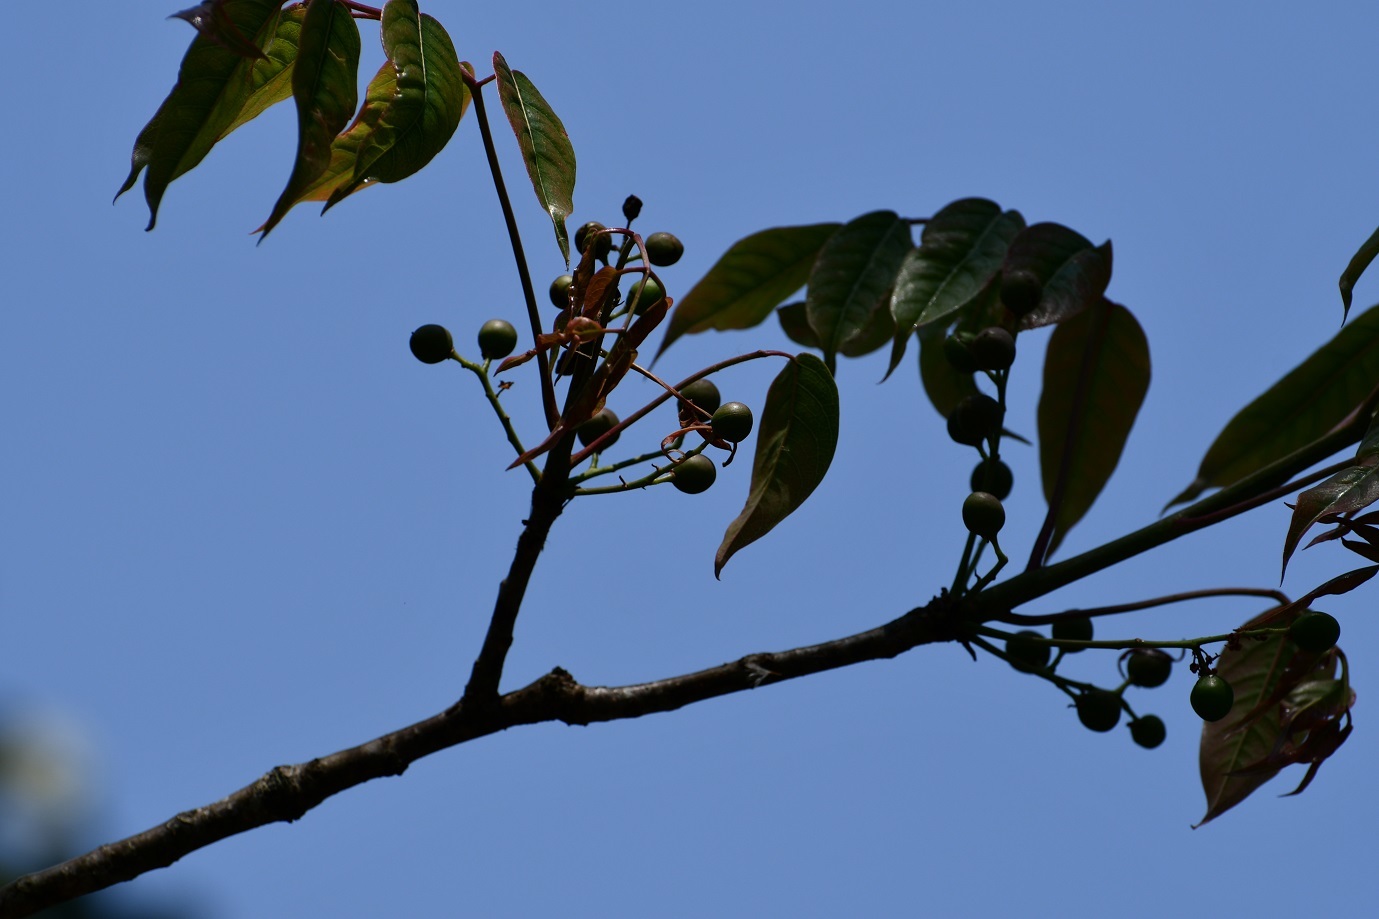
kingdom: Plantae
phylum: Tracheophyta
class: Magnoliopsida
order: Sapindales
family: Burseraceae
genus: Bursera
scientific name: Bursera simaruba
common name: Turpentine tree
